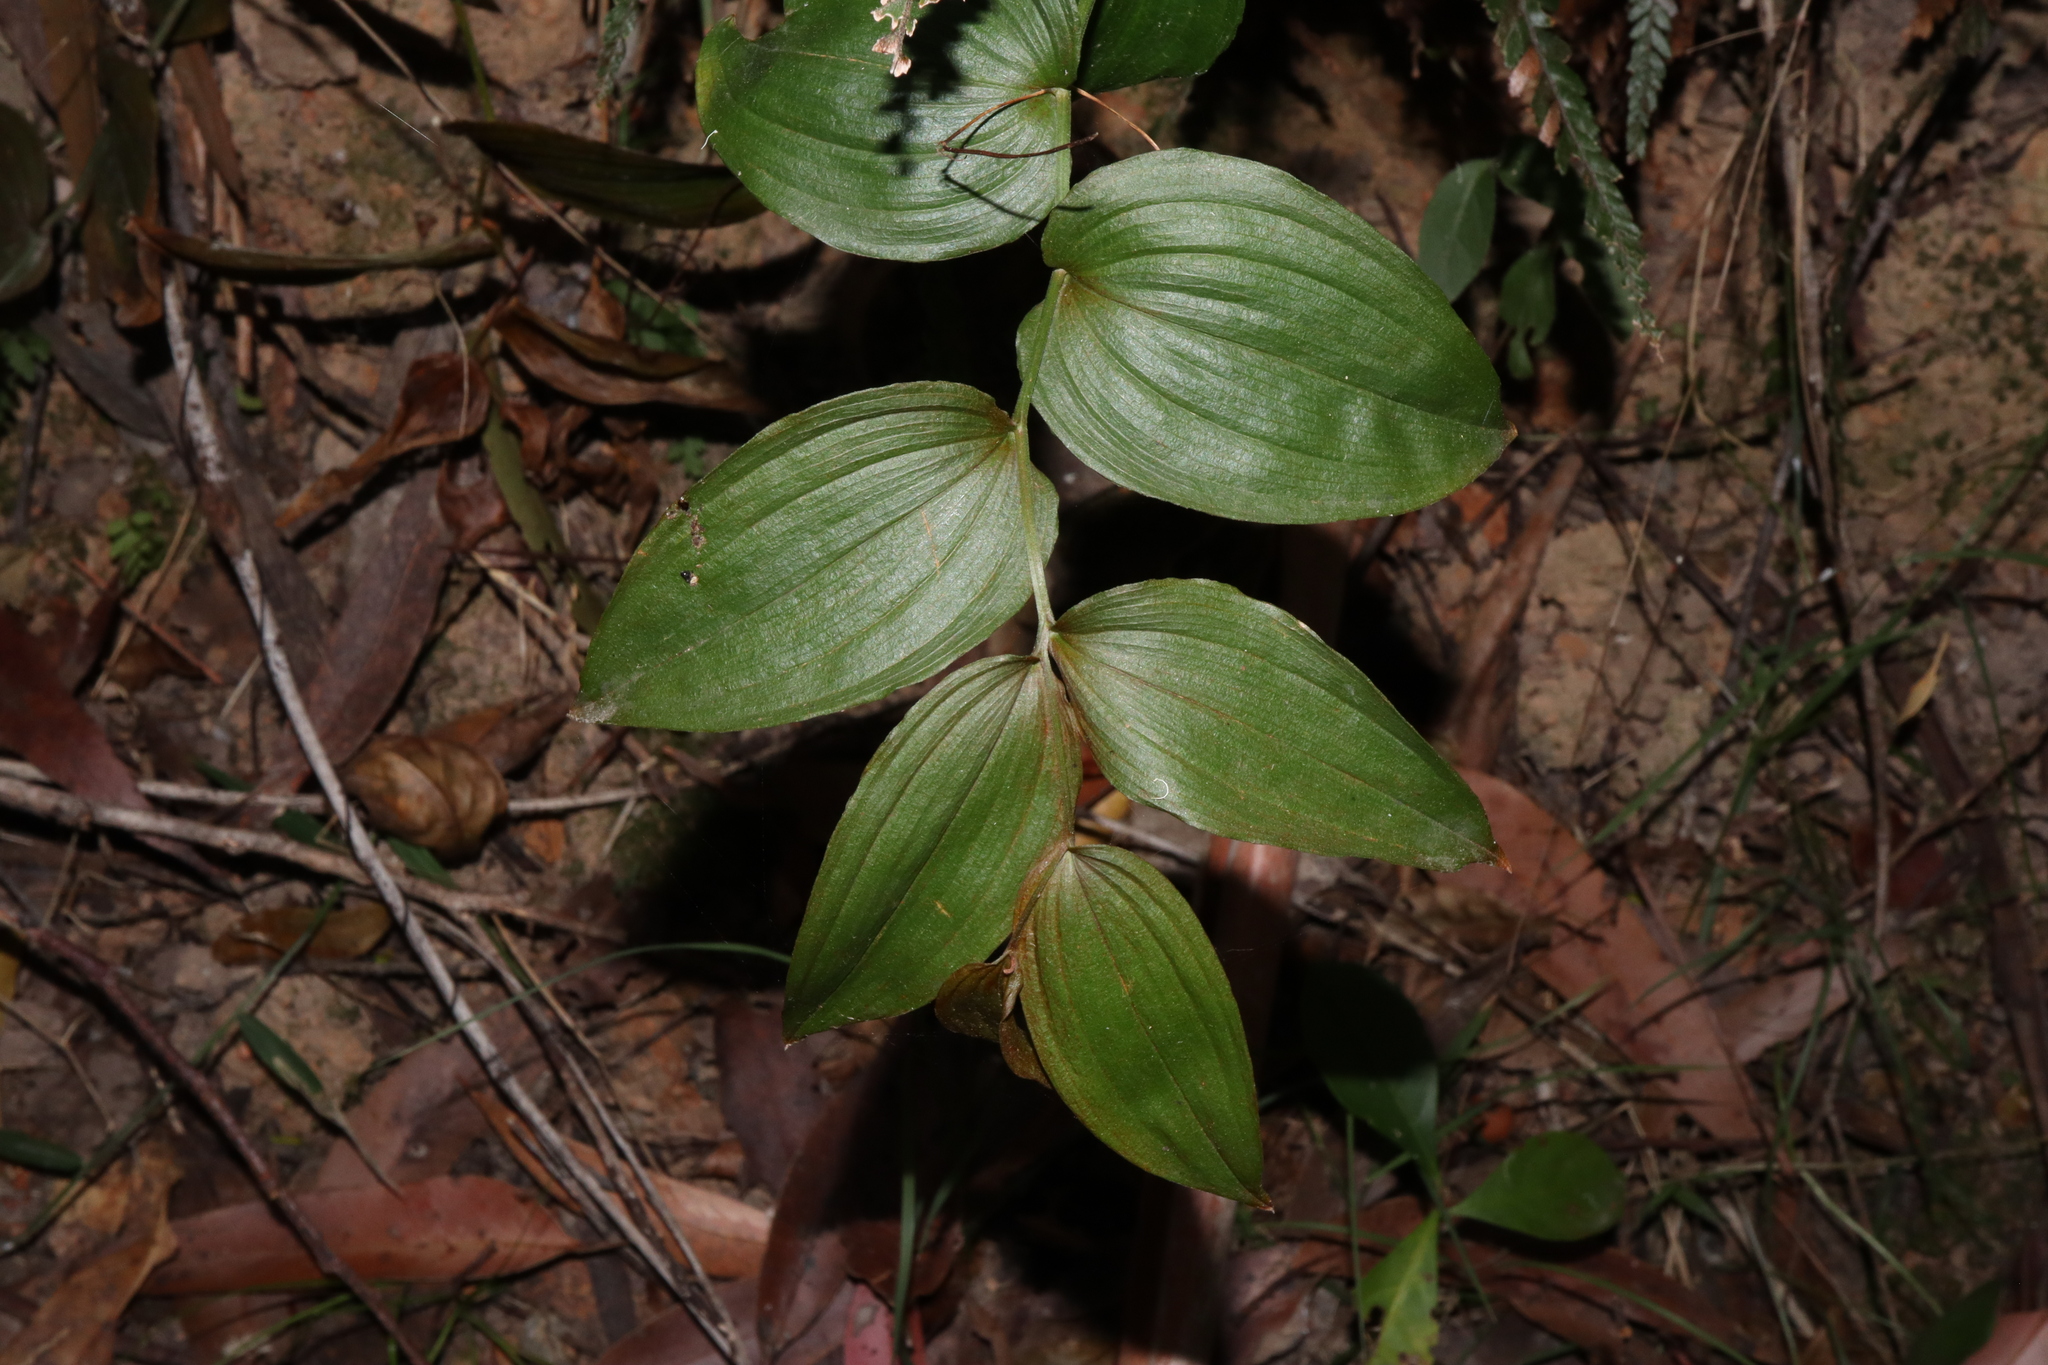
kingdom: Plantae
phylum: Tracheophyta
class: Liliopsida
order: Liliales
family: Colchicaceae
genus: Tripladenia
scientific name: Tripladenia cunninghamii
